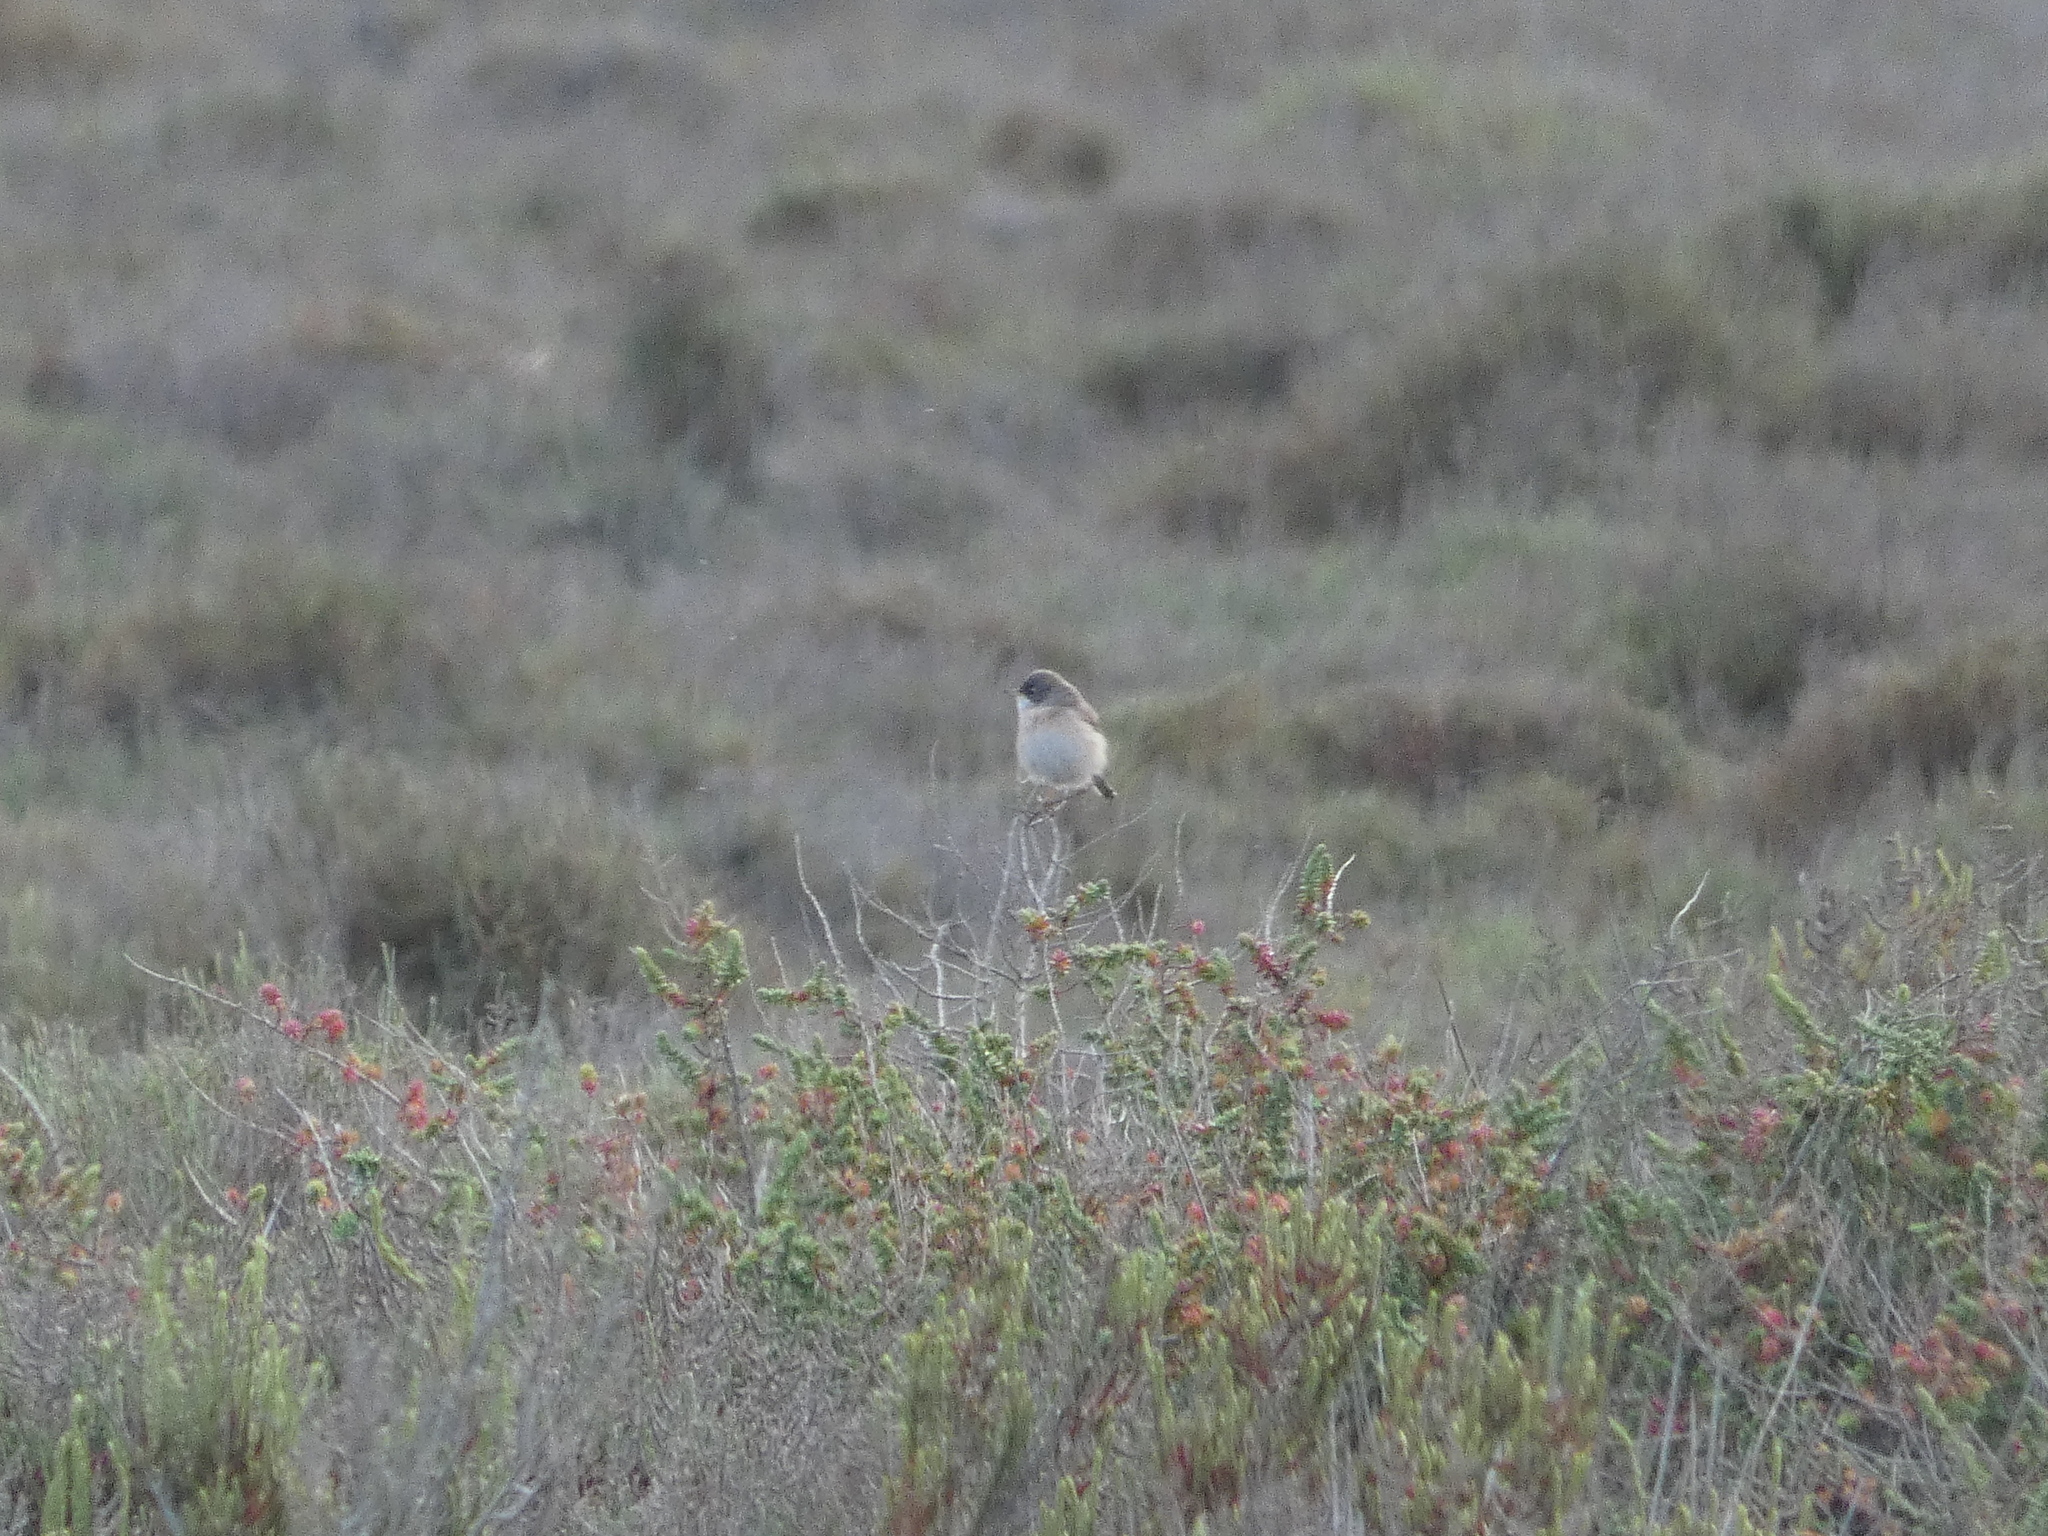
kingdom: Animalia
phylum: Chordata
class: Aves
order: Passeriformes
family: Sylviidae
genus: Sylvia
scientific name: Sylvia conspicillata
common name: Spectacled warbler
